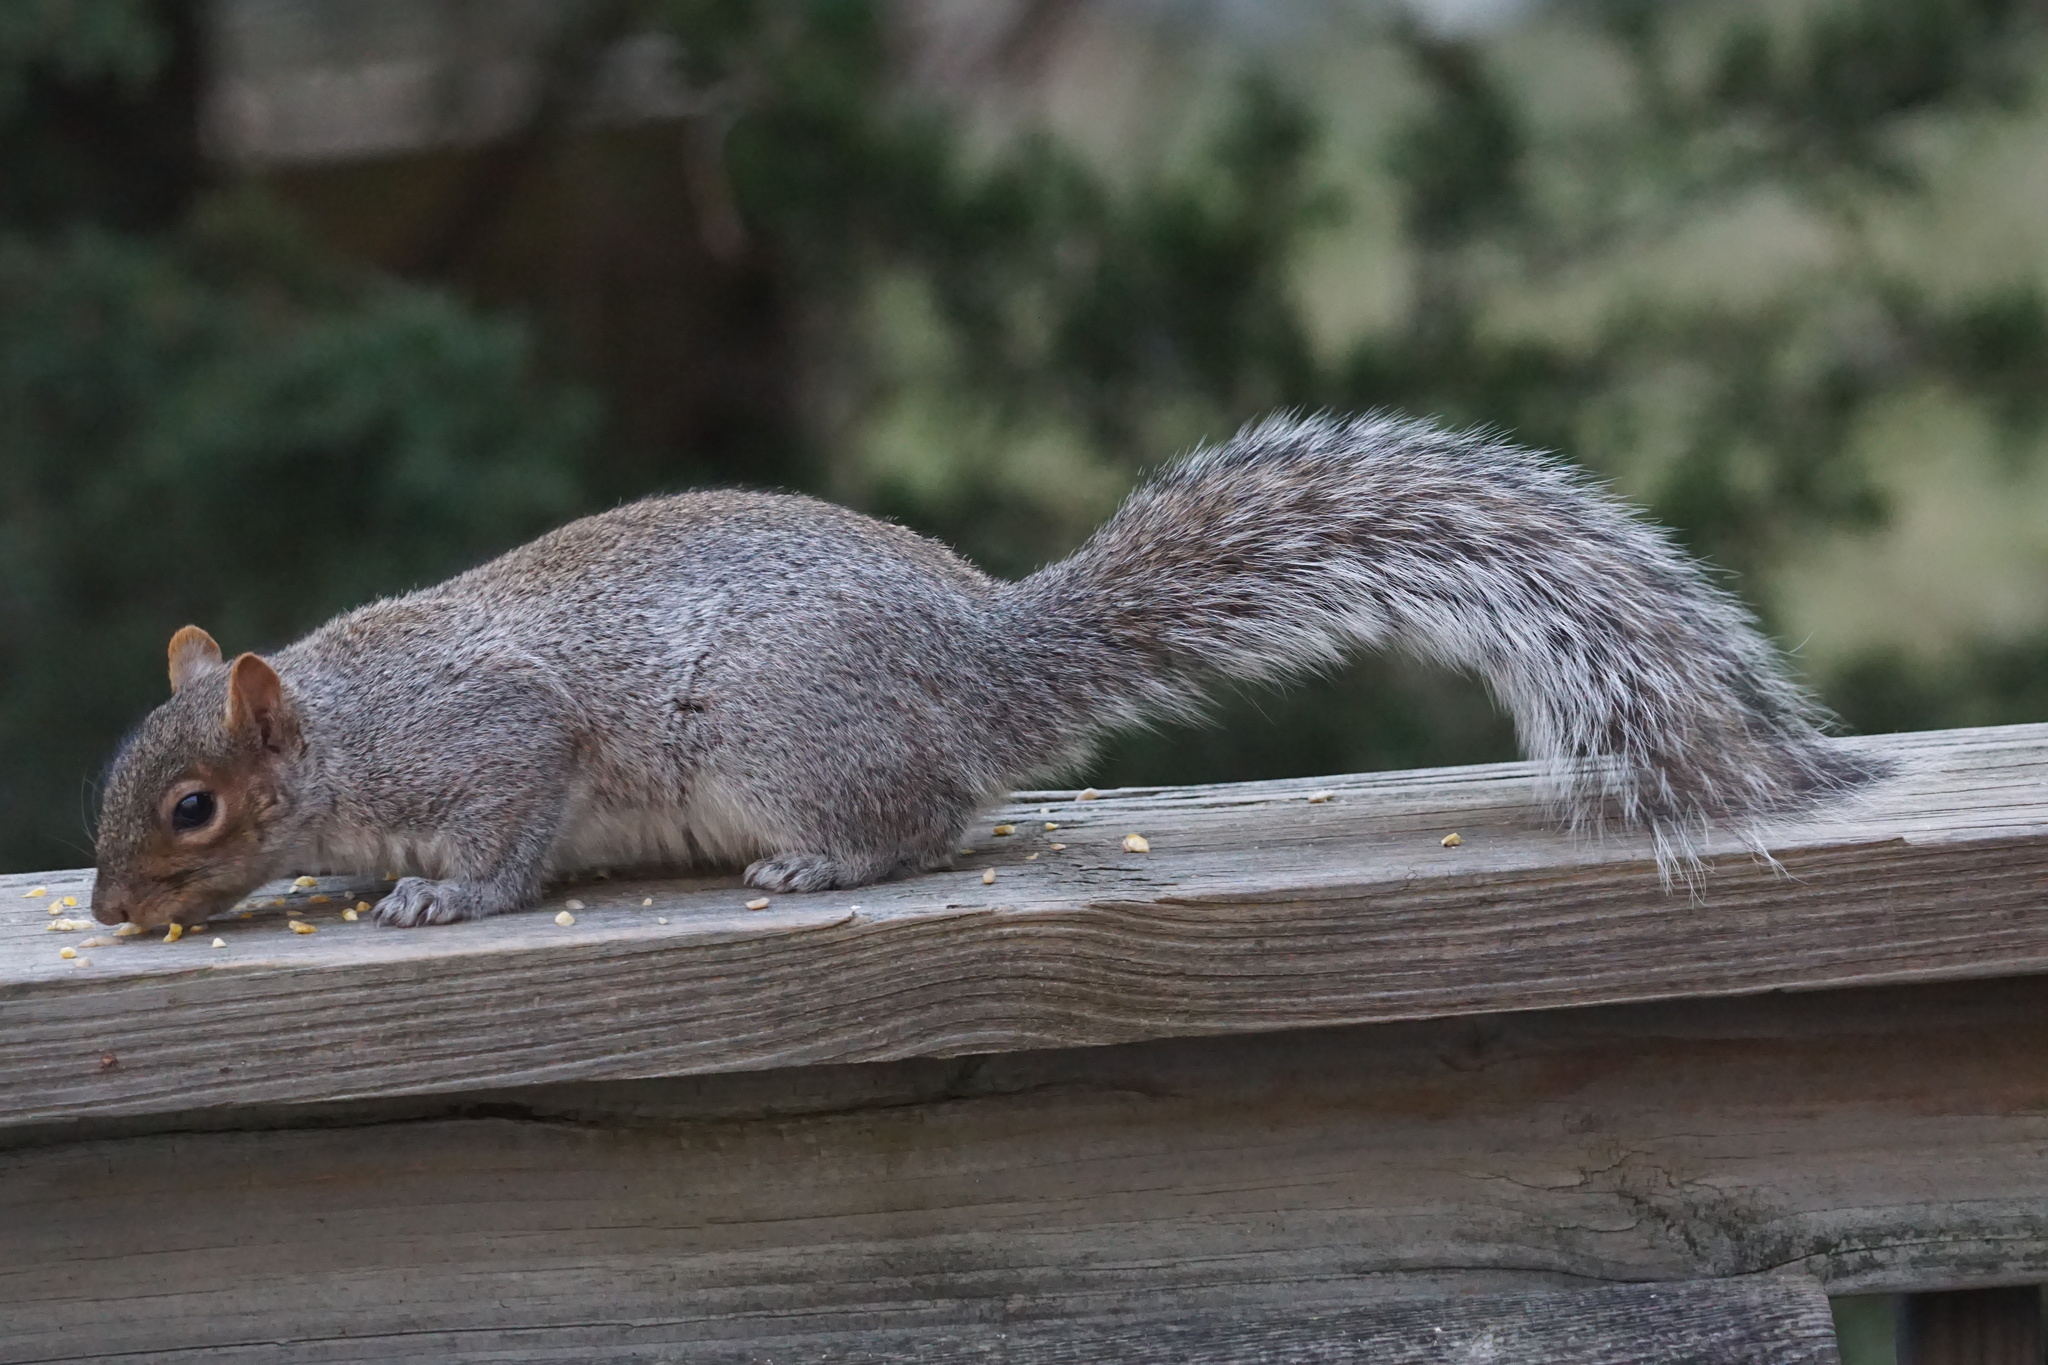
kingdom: Animalia
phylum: Chordata
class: Mammalia
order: Rodentia
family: Sciuridae
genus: Sciurus
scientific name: Sciurus carolinensis
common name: Eastern gray squirrel
